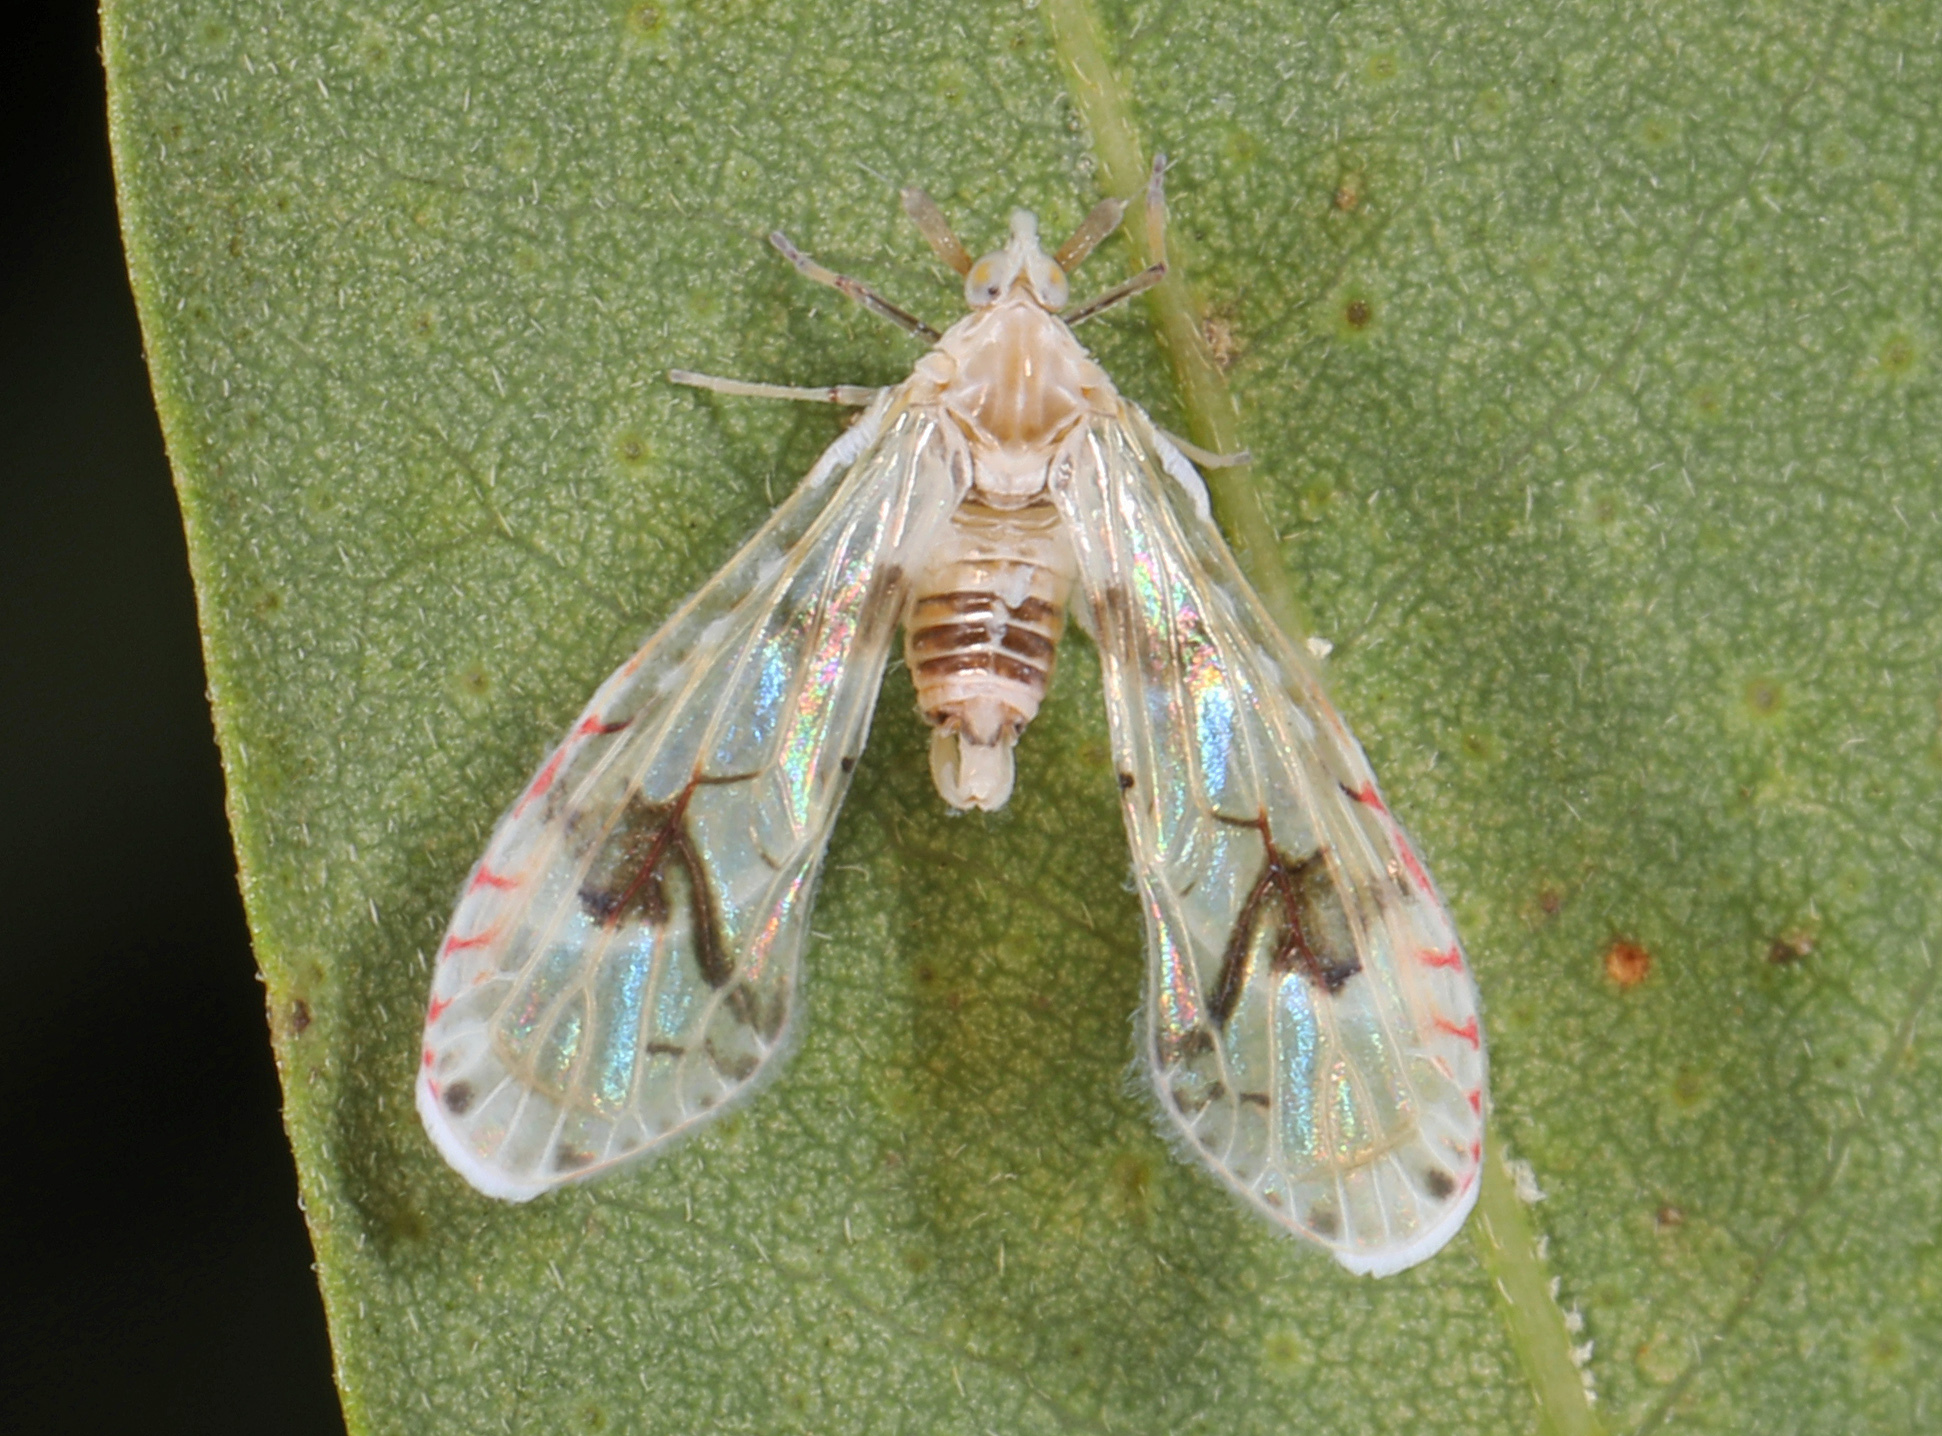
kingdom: Animalia
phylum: Arthropoda
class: Insecta
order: Hemiptera
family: Derbidae
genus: Anotia
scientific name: Anotia robertsonii
